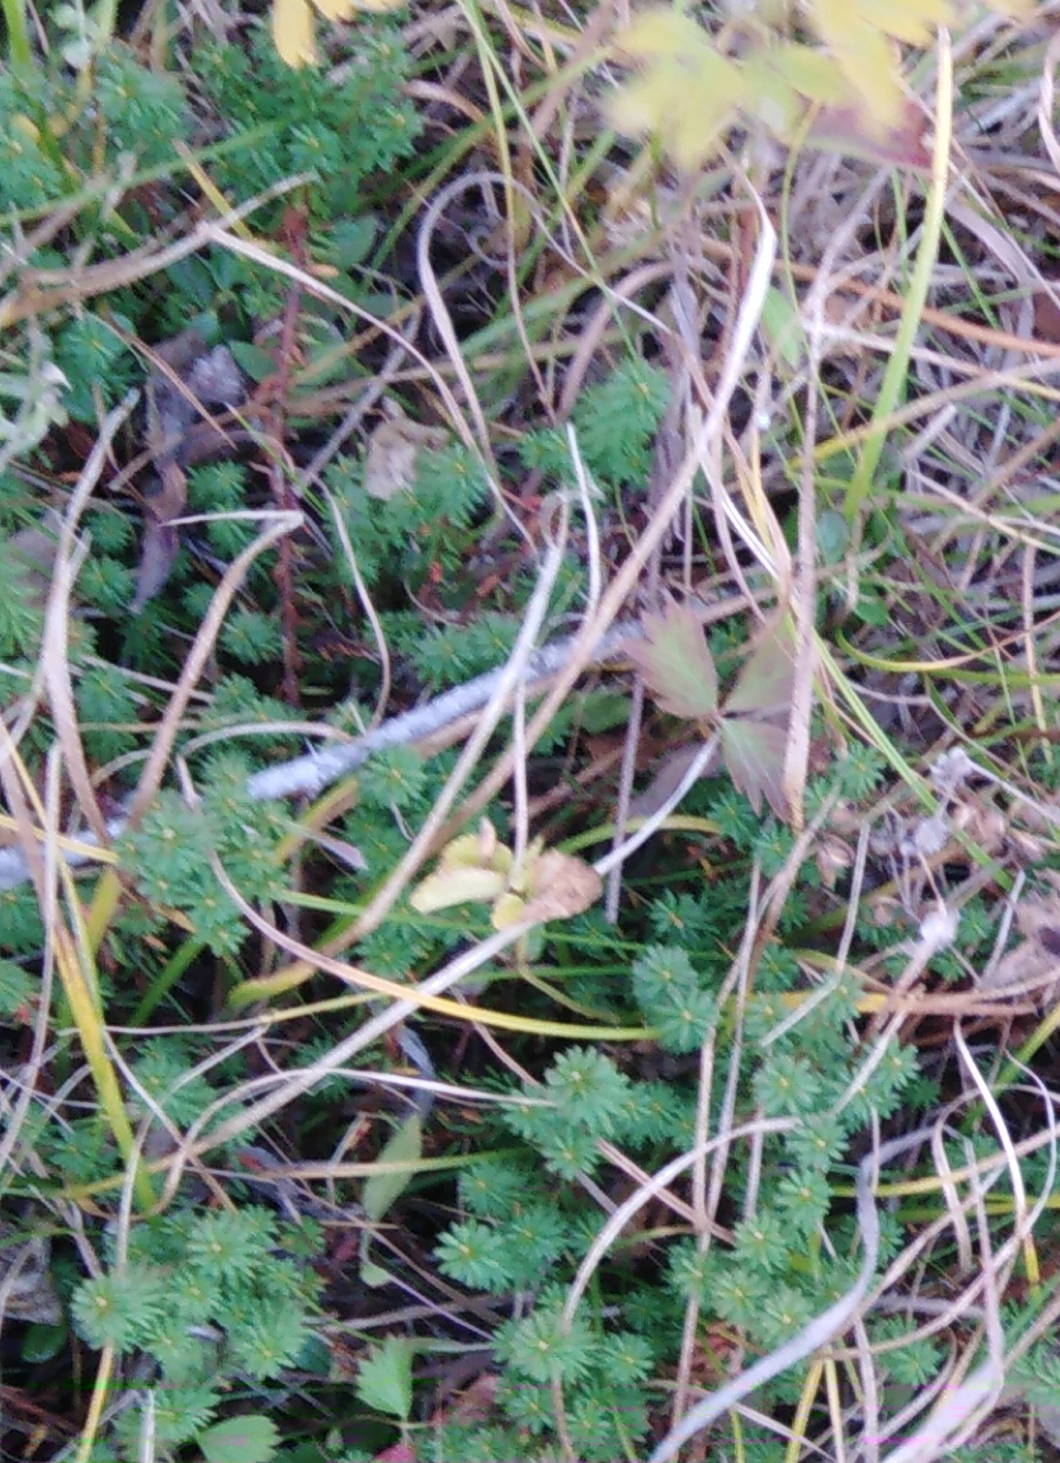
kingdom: Plantae
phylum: Tracheophyta
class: Magnoliopsida
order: Ericales
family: Ericaceae
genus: Empetrum
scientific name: Empetrum nigrum
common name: Black crowberry
